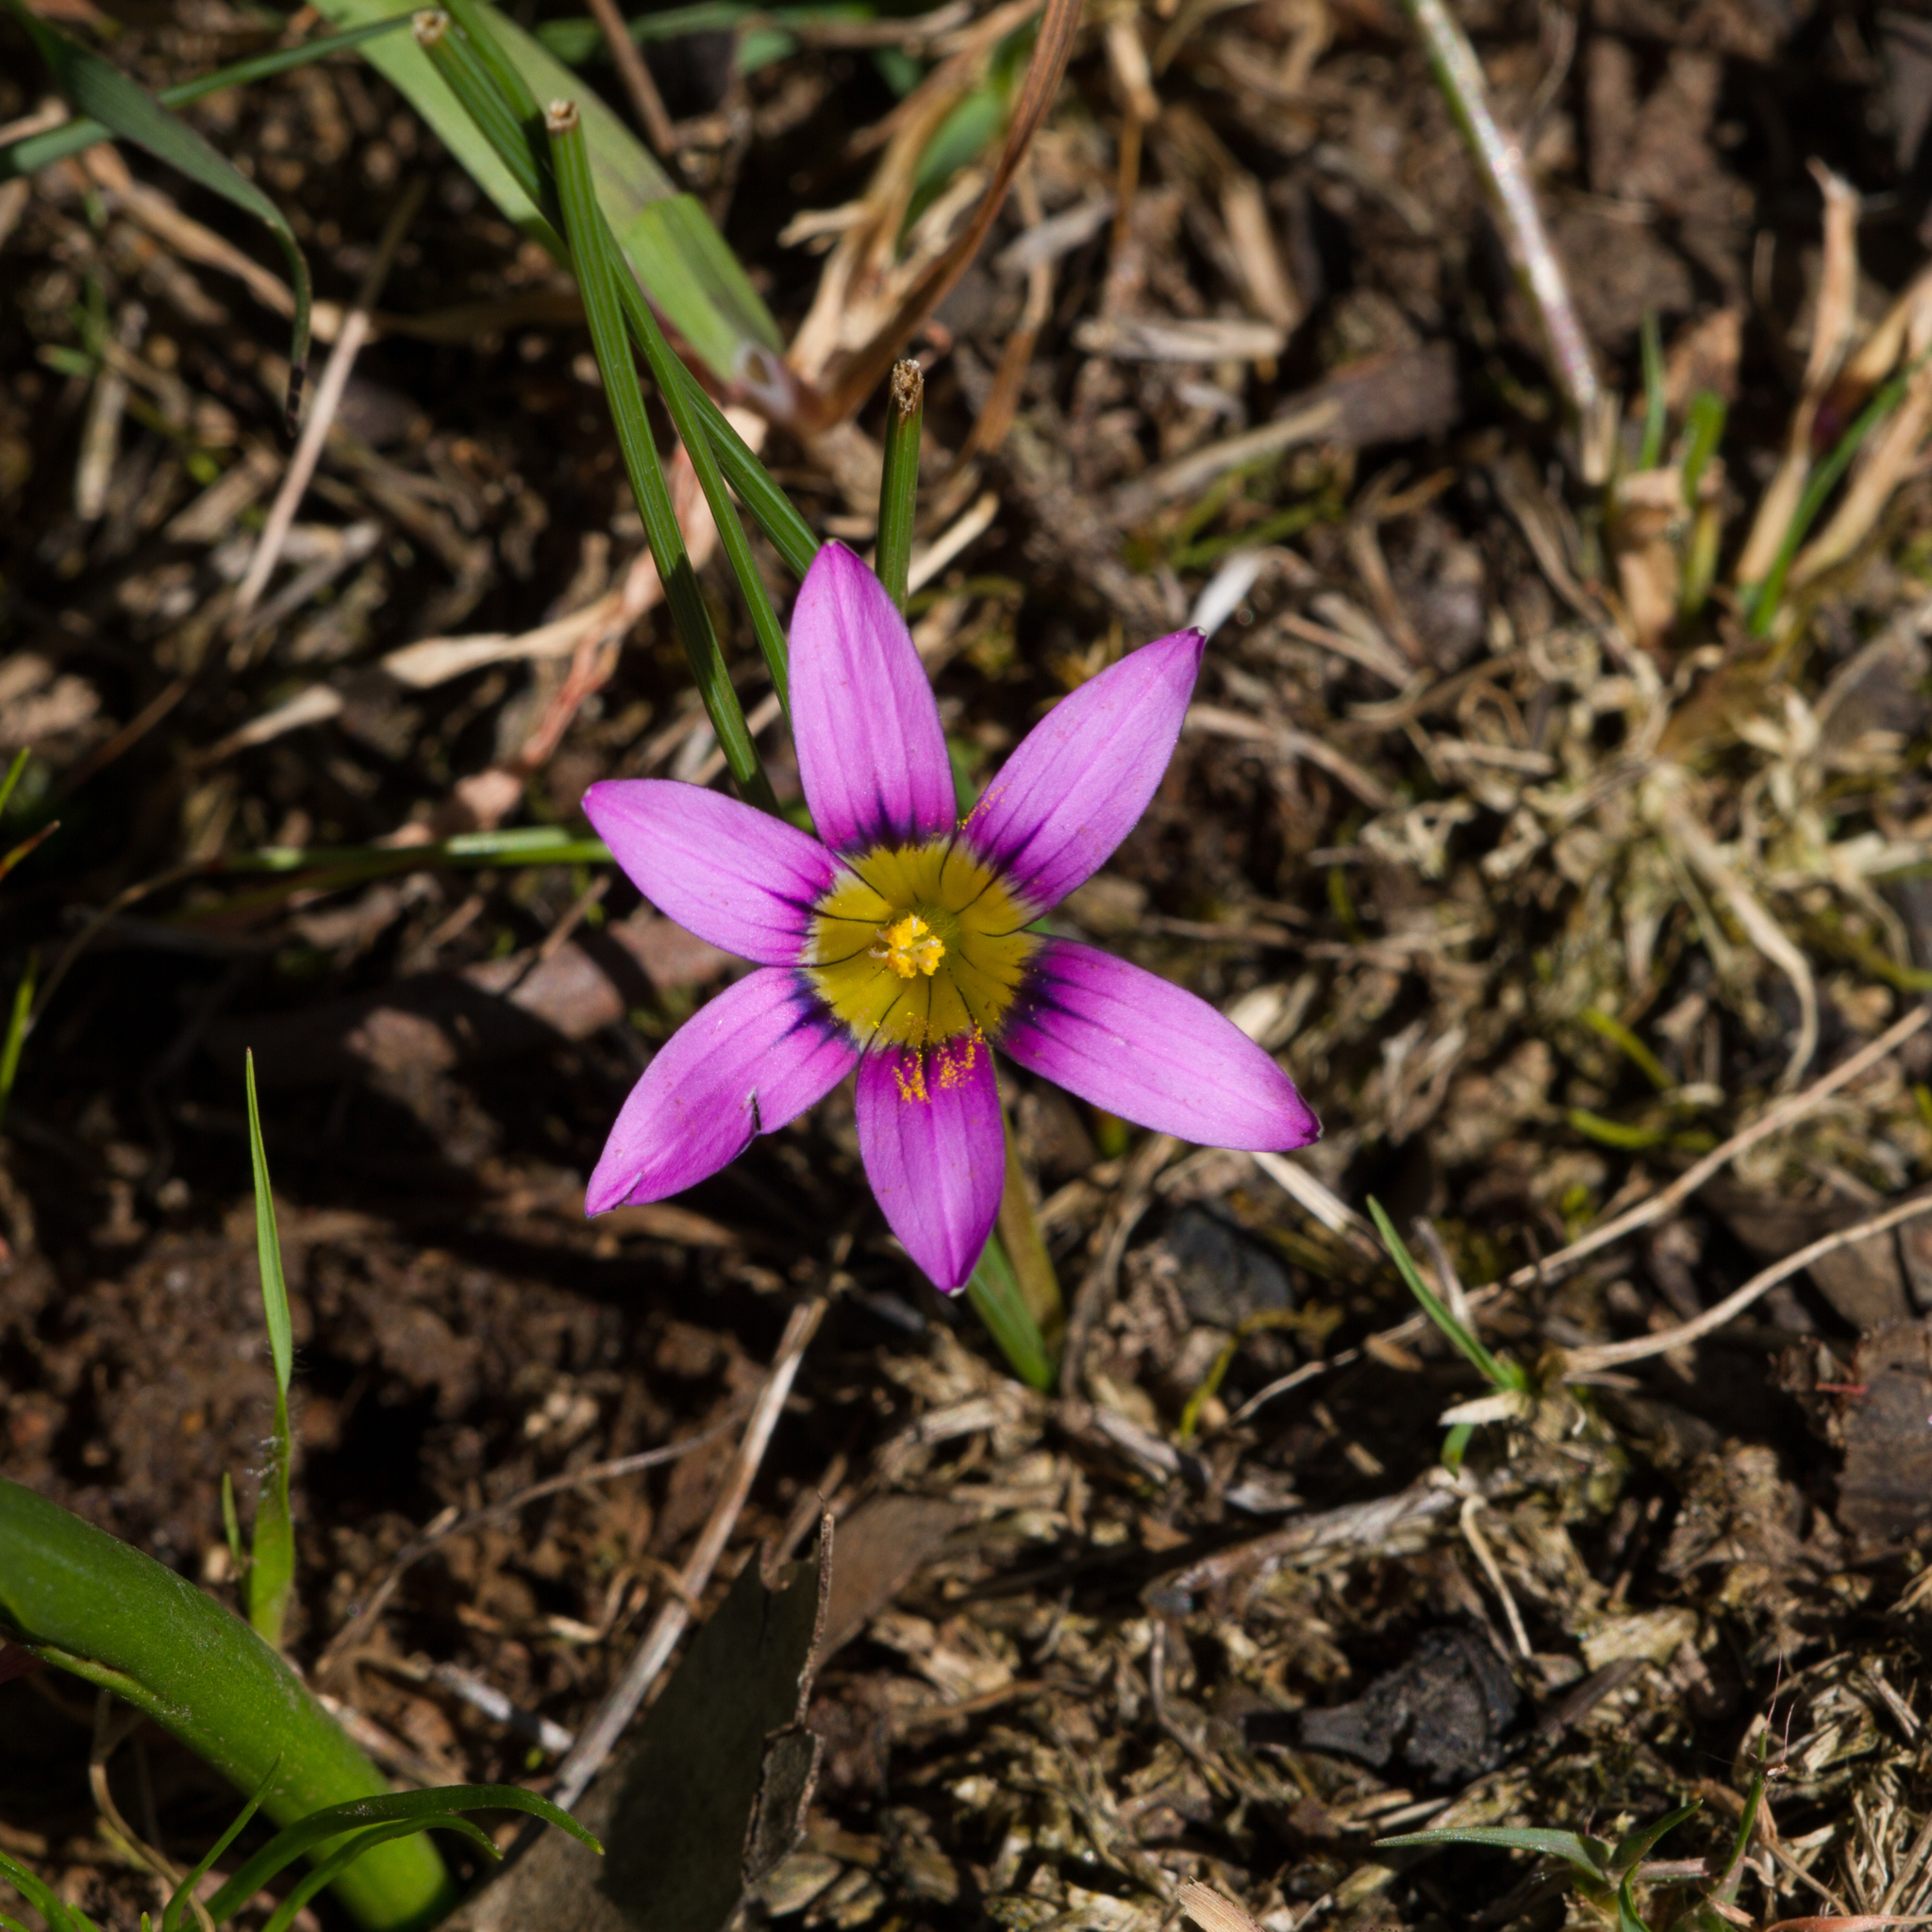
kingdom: Plantae
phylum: Tracheophyta
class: Liliopsida
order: Asparagales
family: Iridaceae
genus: Romulea
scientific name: Romulea rosea
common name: Oniongrass
